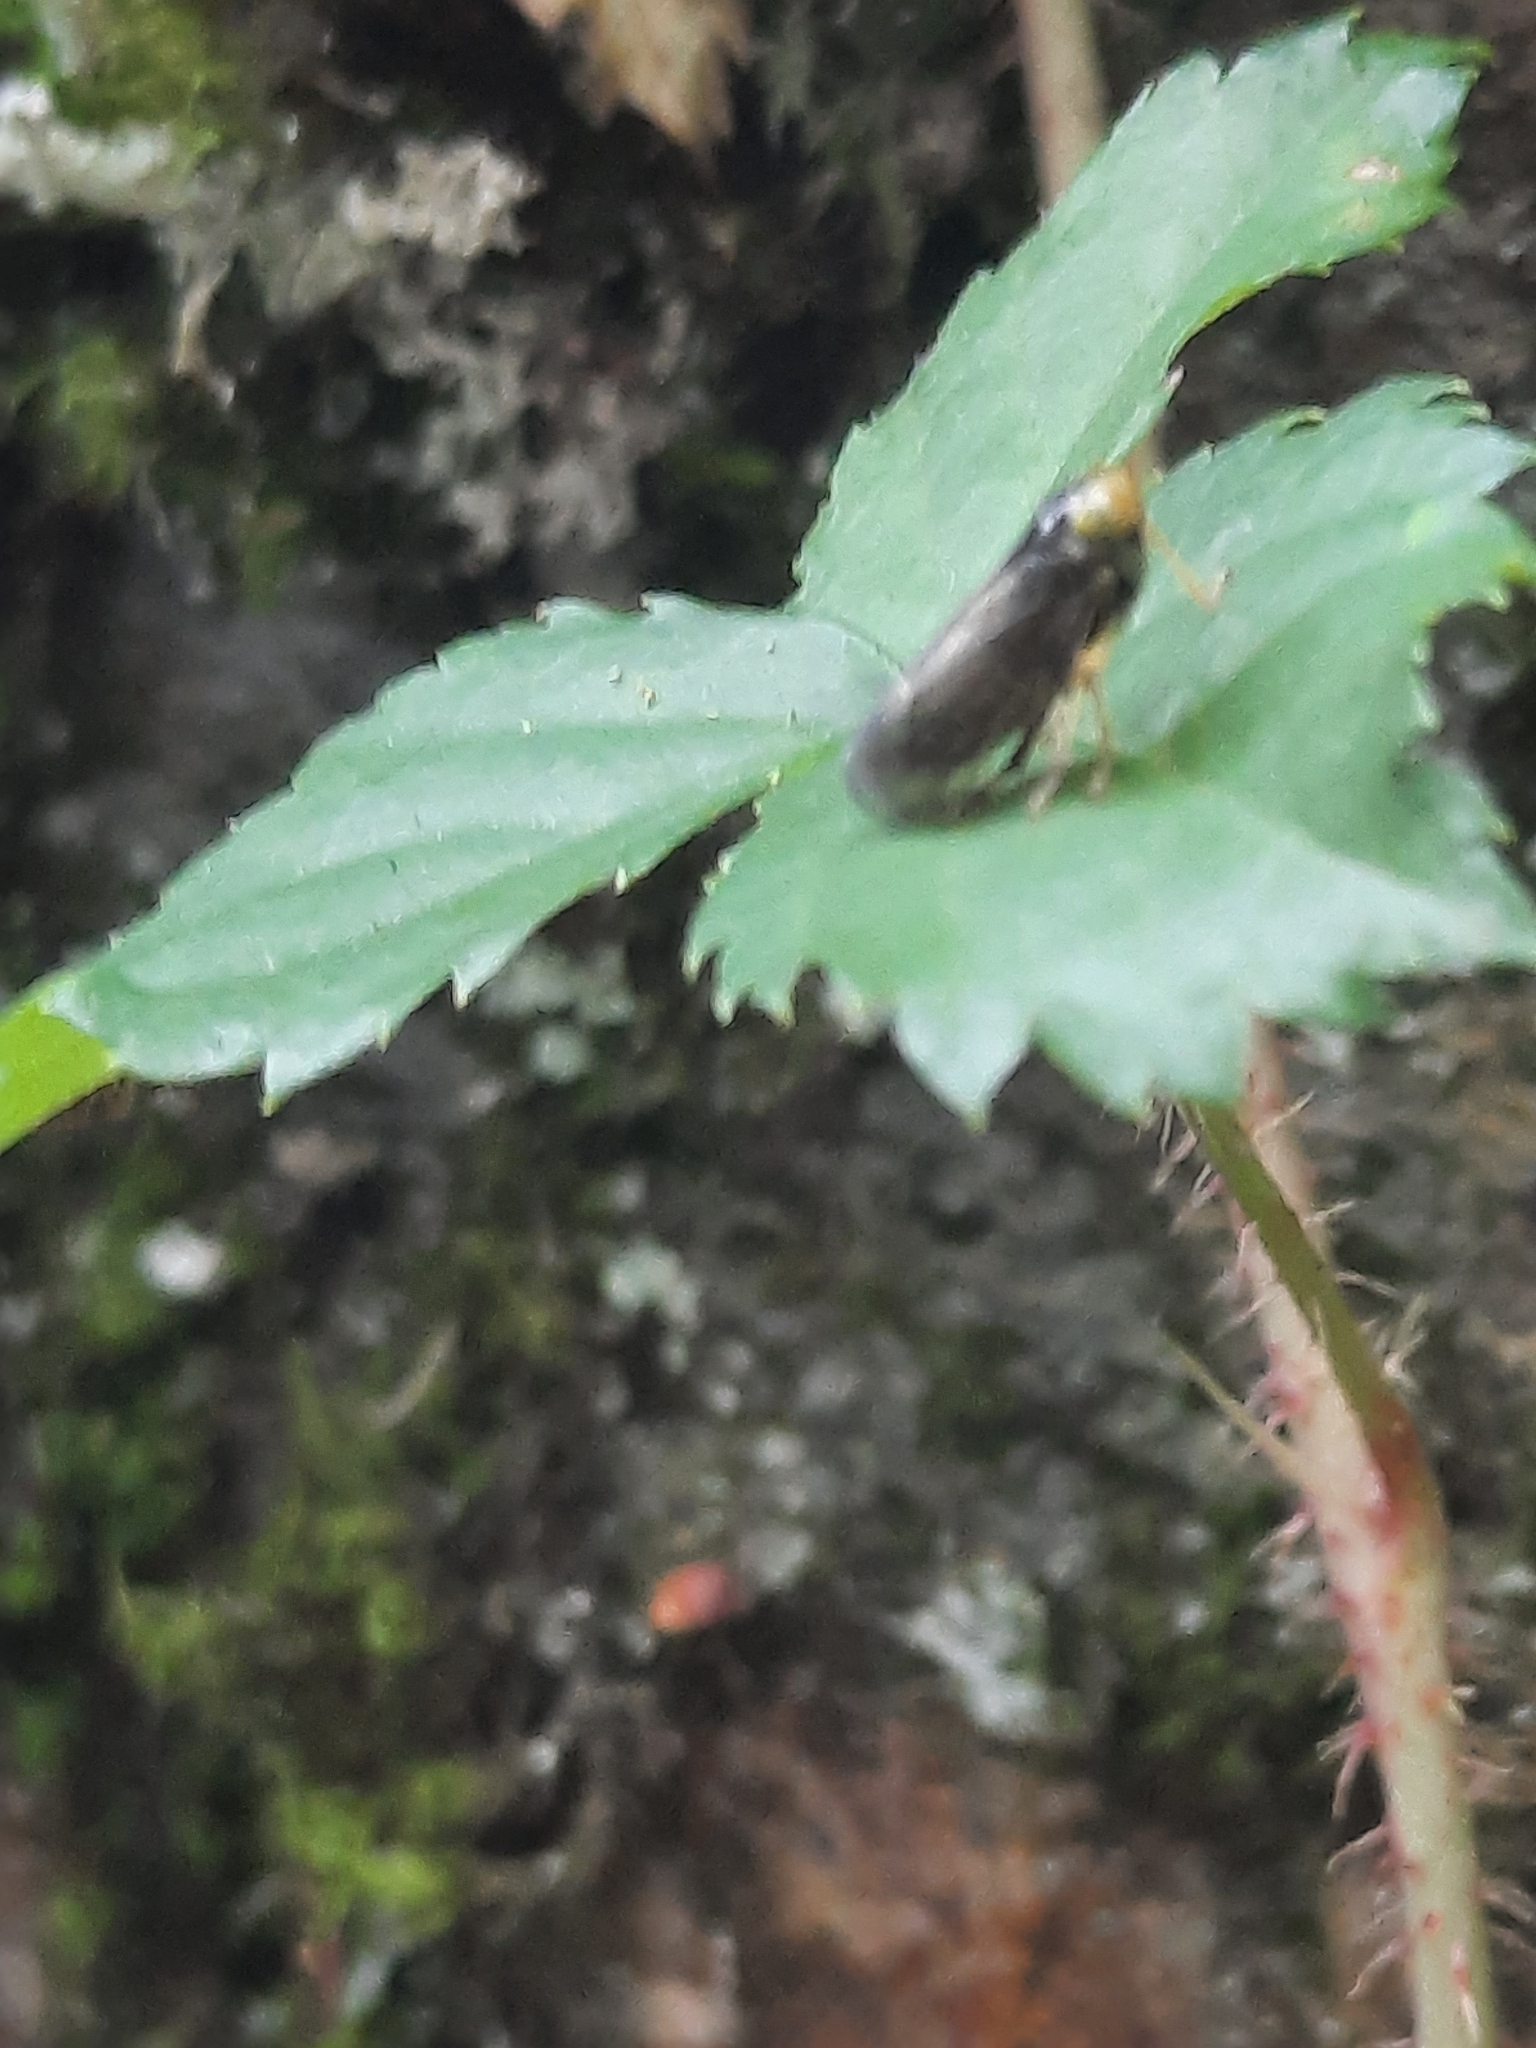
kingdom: Animalia
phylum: Arthropoda
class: Insecta
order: Hemiptera
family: Cicadellidae
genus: Jikradia
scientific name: Jikradia olitoria
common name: Coppery leafhopper
